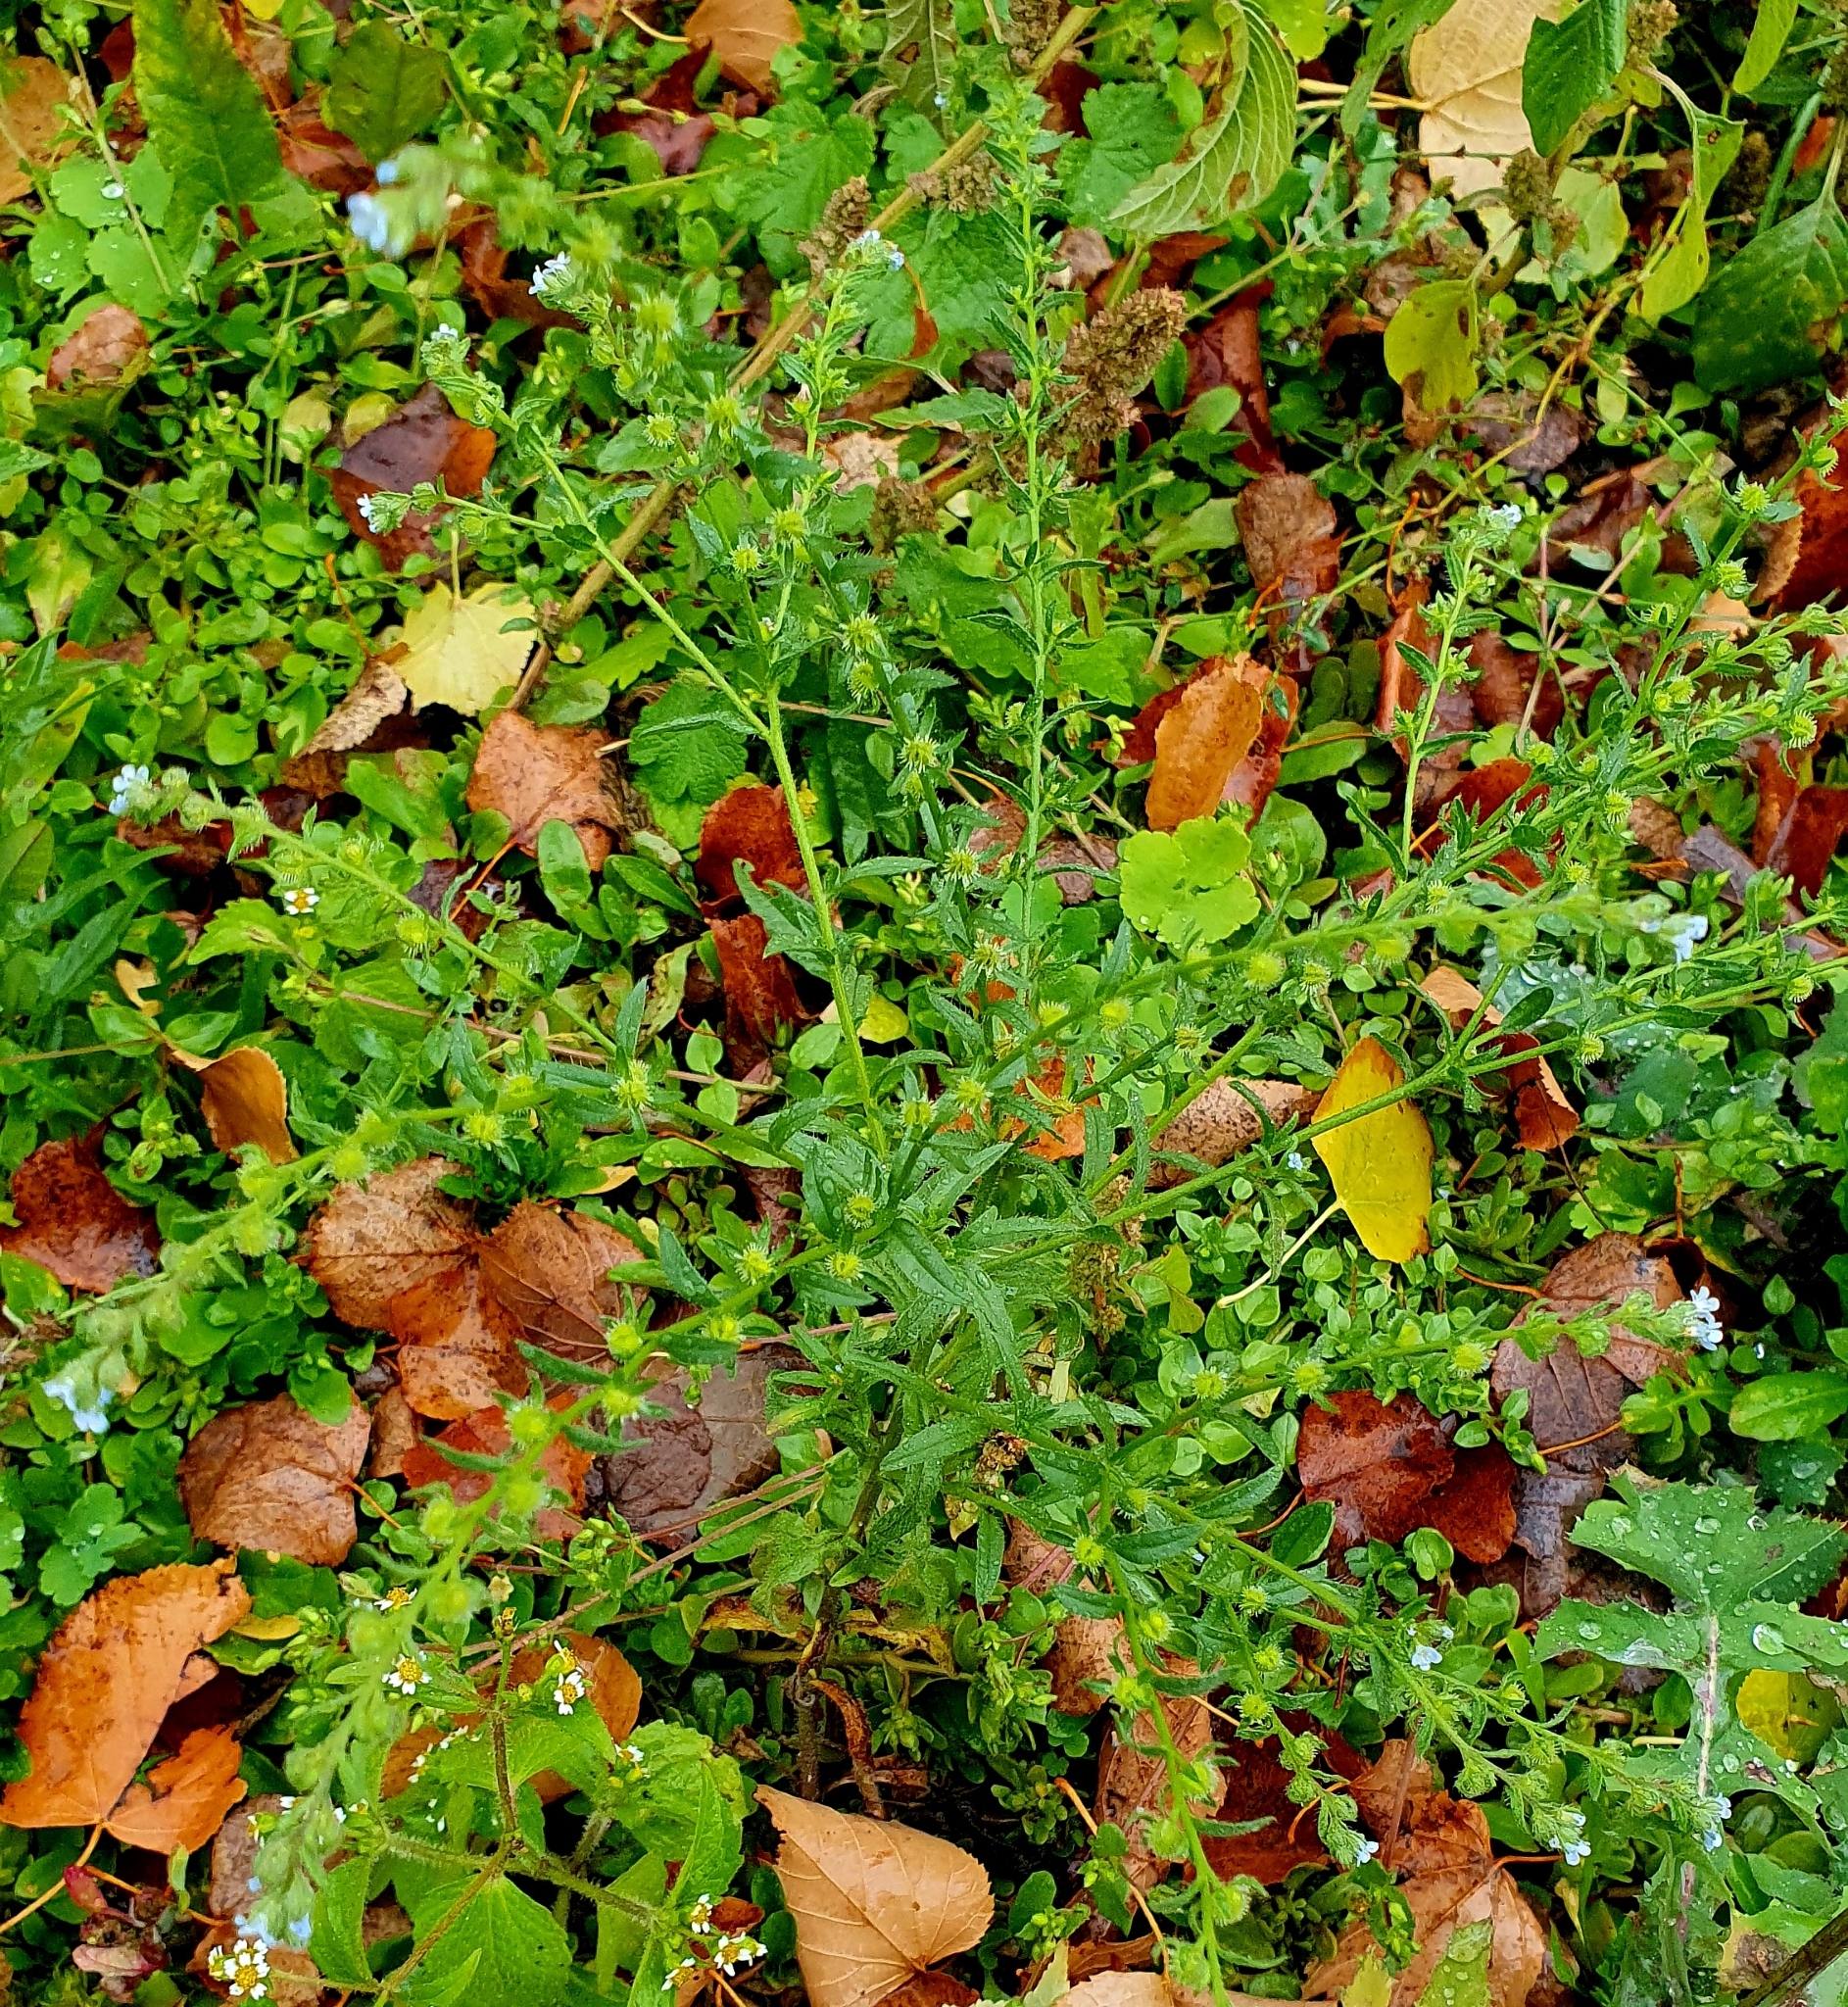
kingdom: Plantae
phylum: Tracheophyta
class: Magnoliopsida
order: Boraginales
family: Boraginaceae
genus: Lappula
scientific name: Lappula squarrosa
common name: European stickseed
